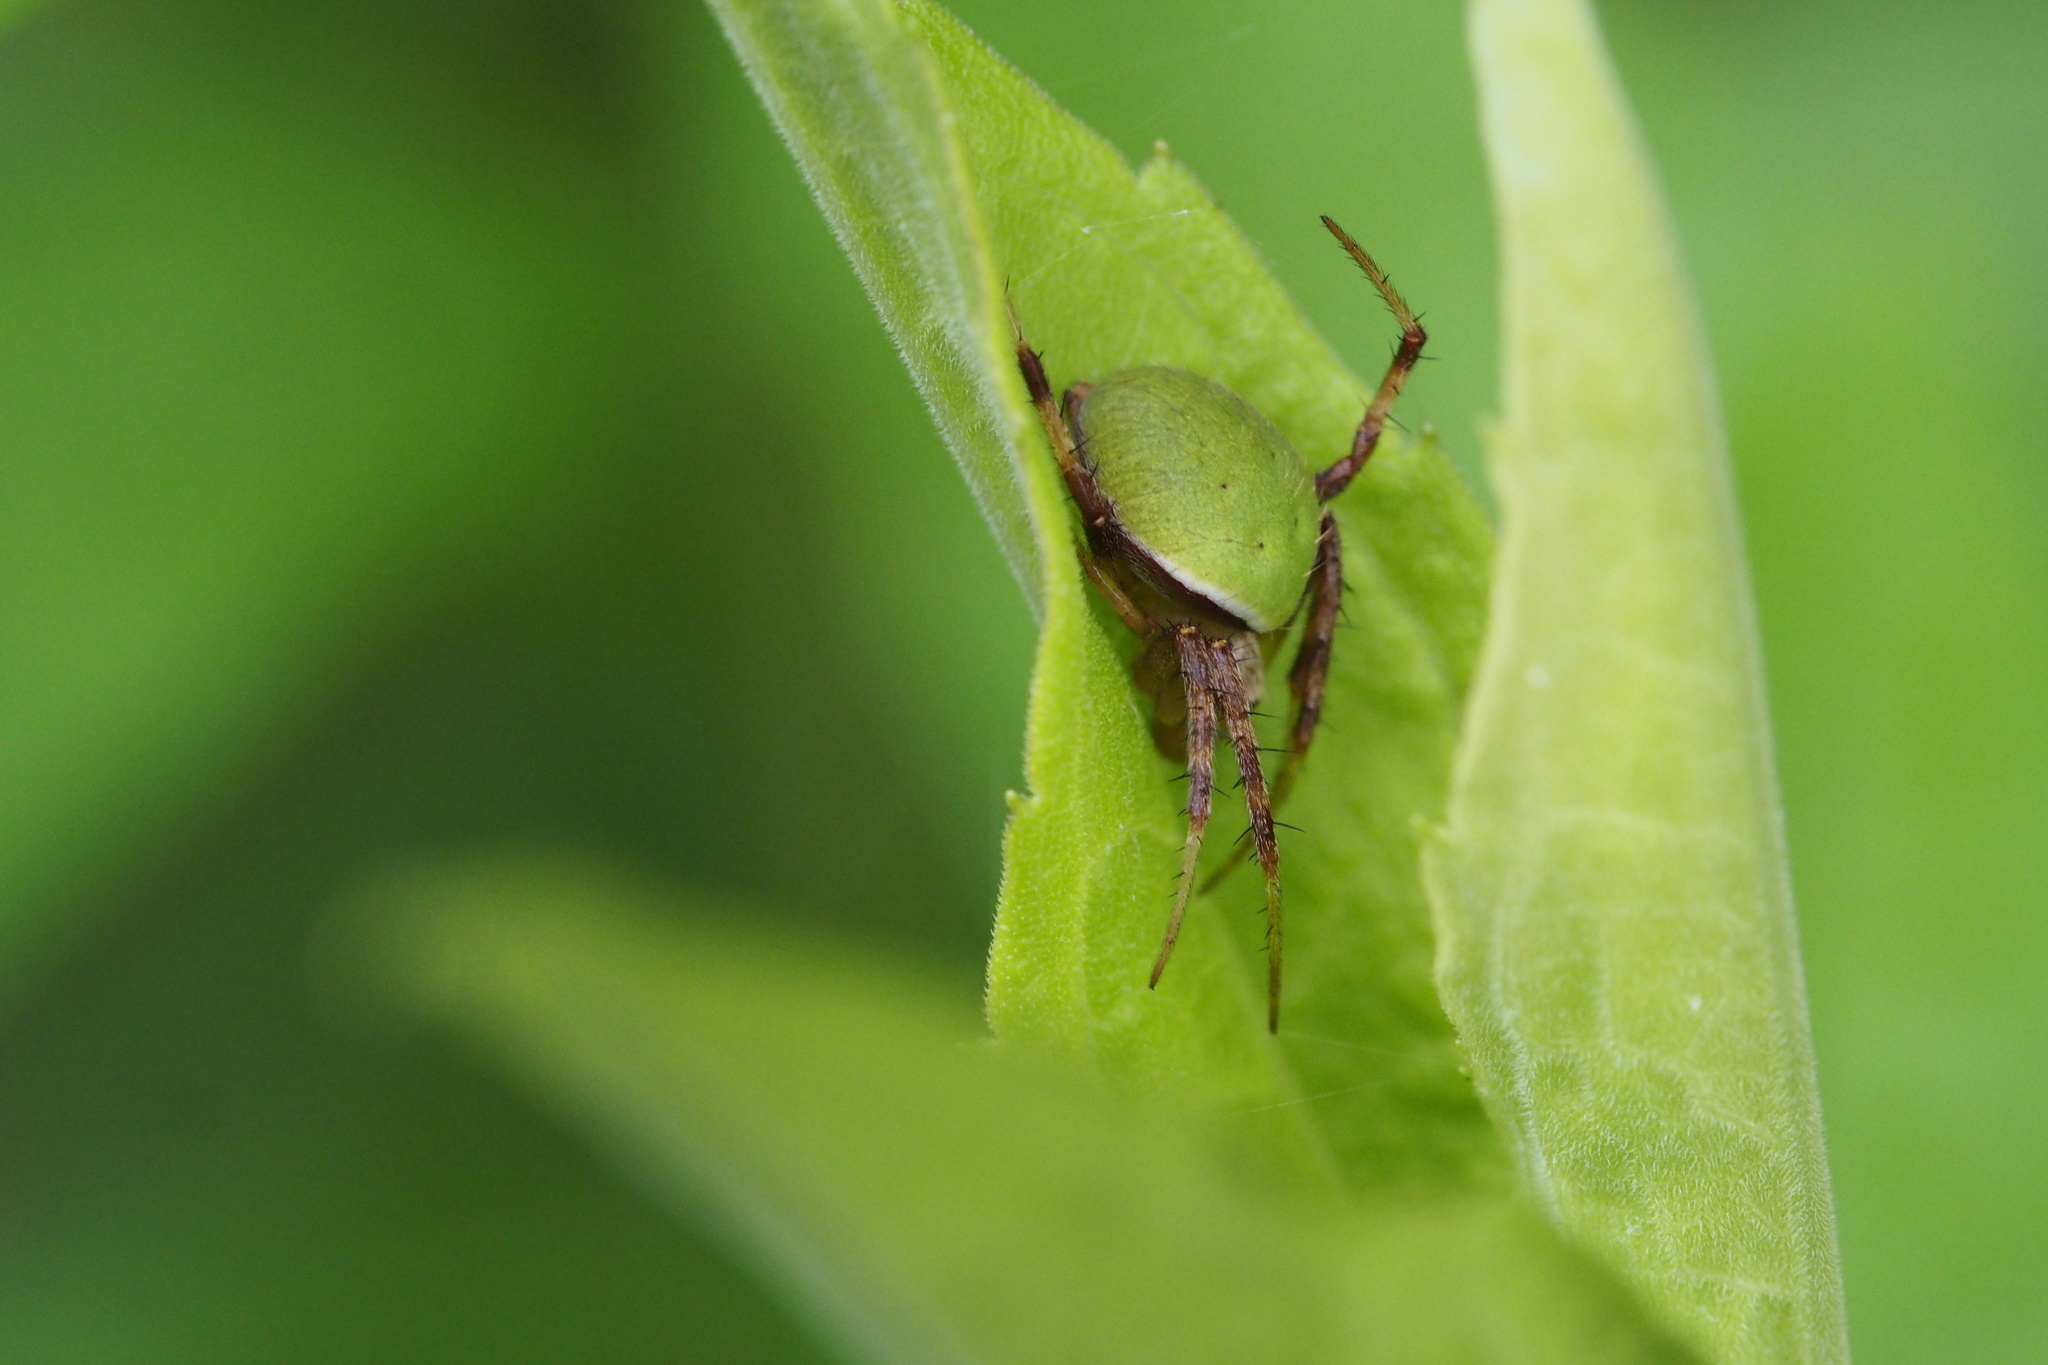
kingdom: Animalia
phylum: Arthropoda
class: Arachnida
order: Araneae
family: Araneidae
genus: Neoscona
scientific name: Neoscona mellotteei
